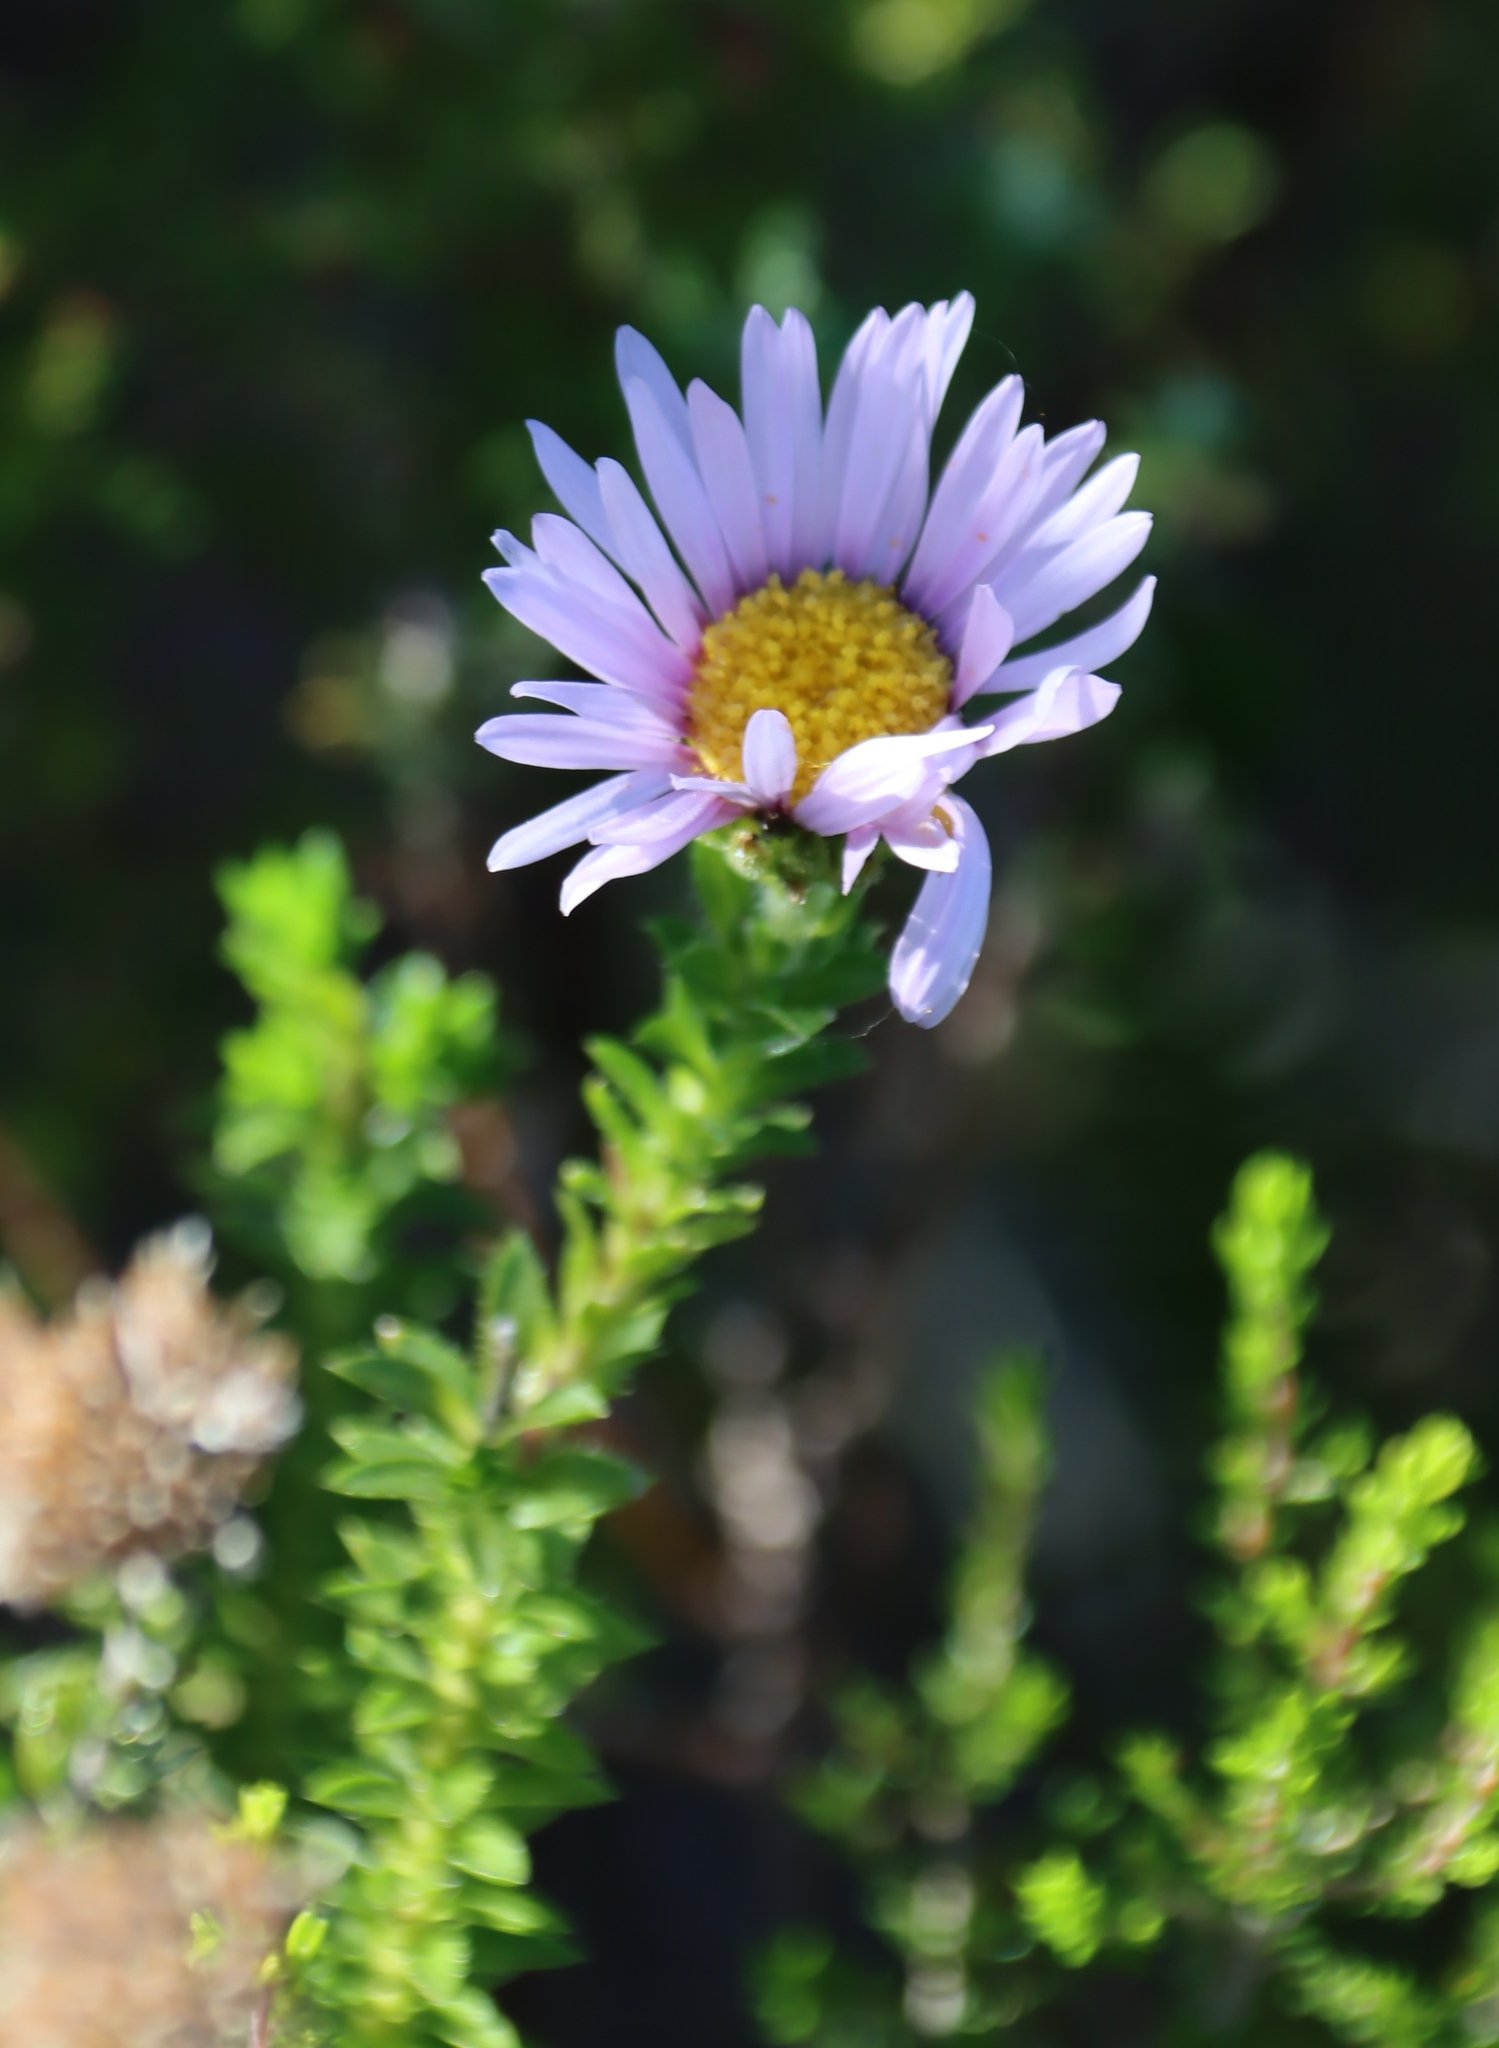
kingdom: Plantae
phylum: Tracheophyta
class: Magnoliopsida
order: Asterales
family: Asteraceae
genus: Felicia
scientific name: Felicia echinata
